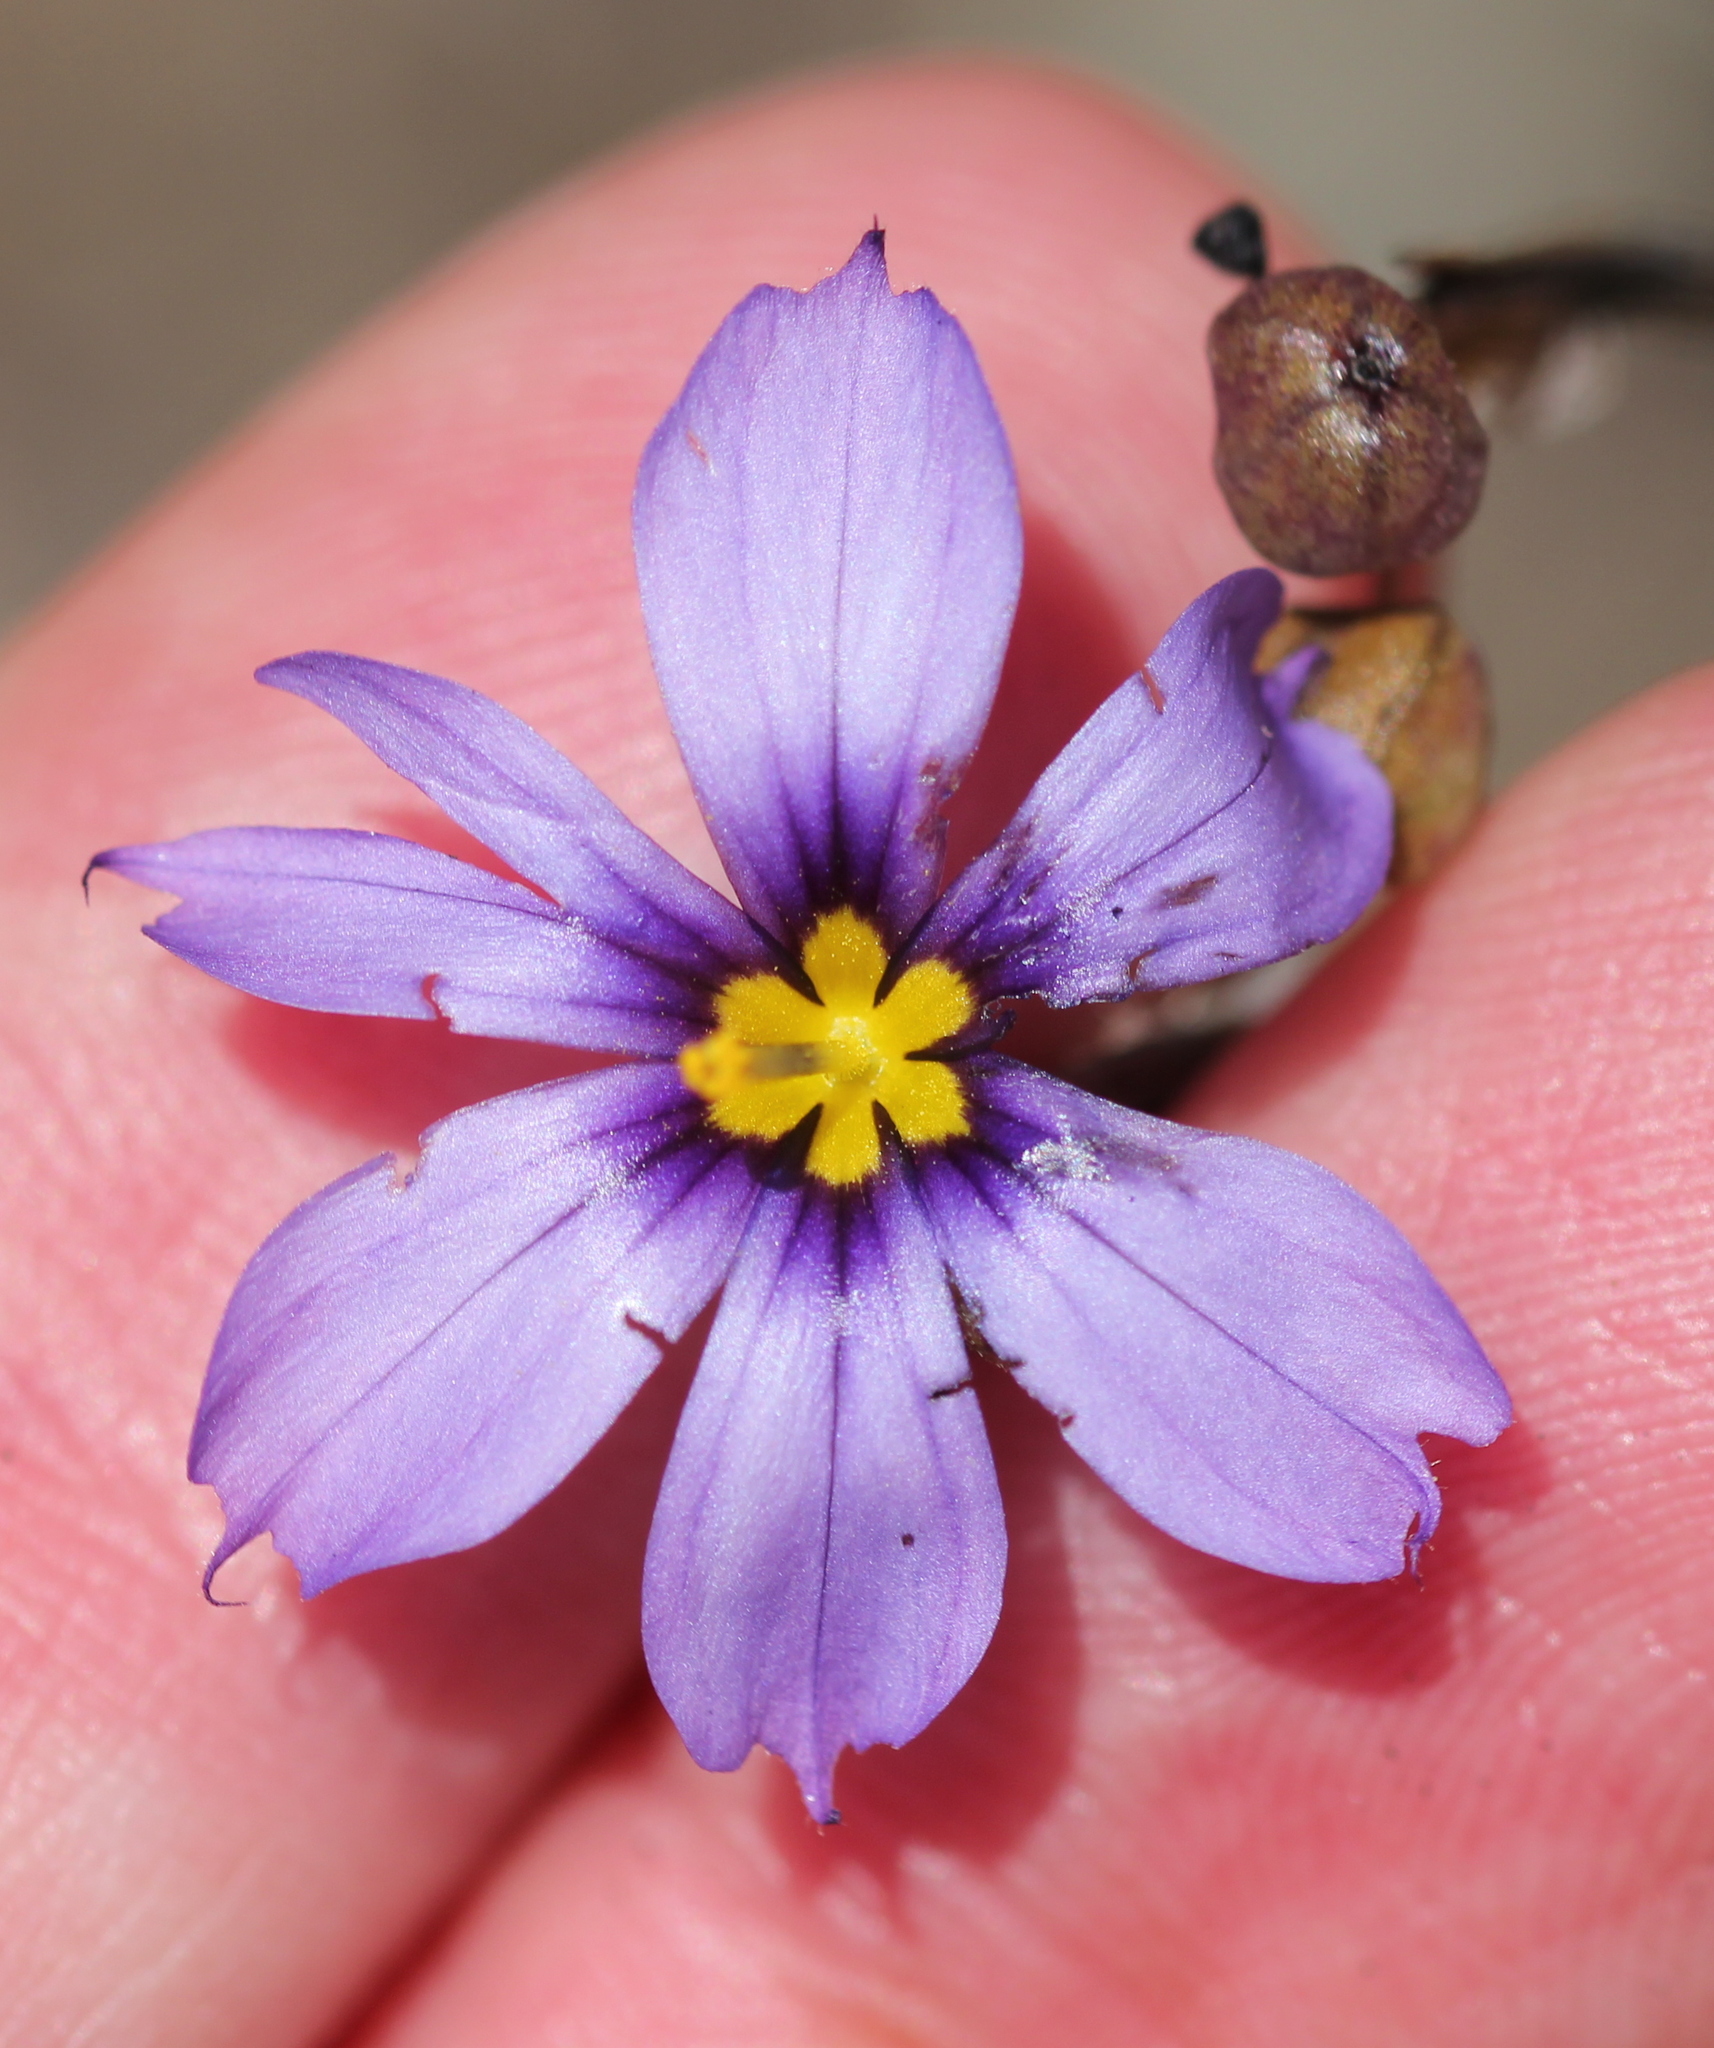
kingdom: Plantae
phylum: Tracheophyta
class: Liliopsida
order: Asparagales
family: Iridaceae
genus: Sisyrinchium
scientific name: Sisyrinchium bellum
